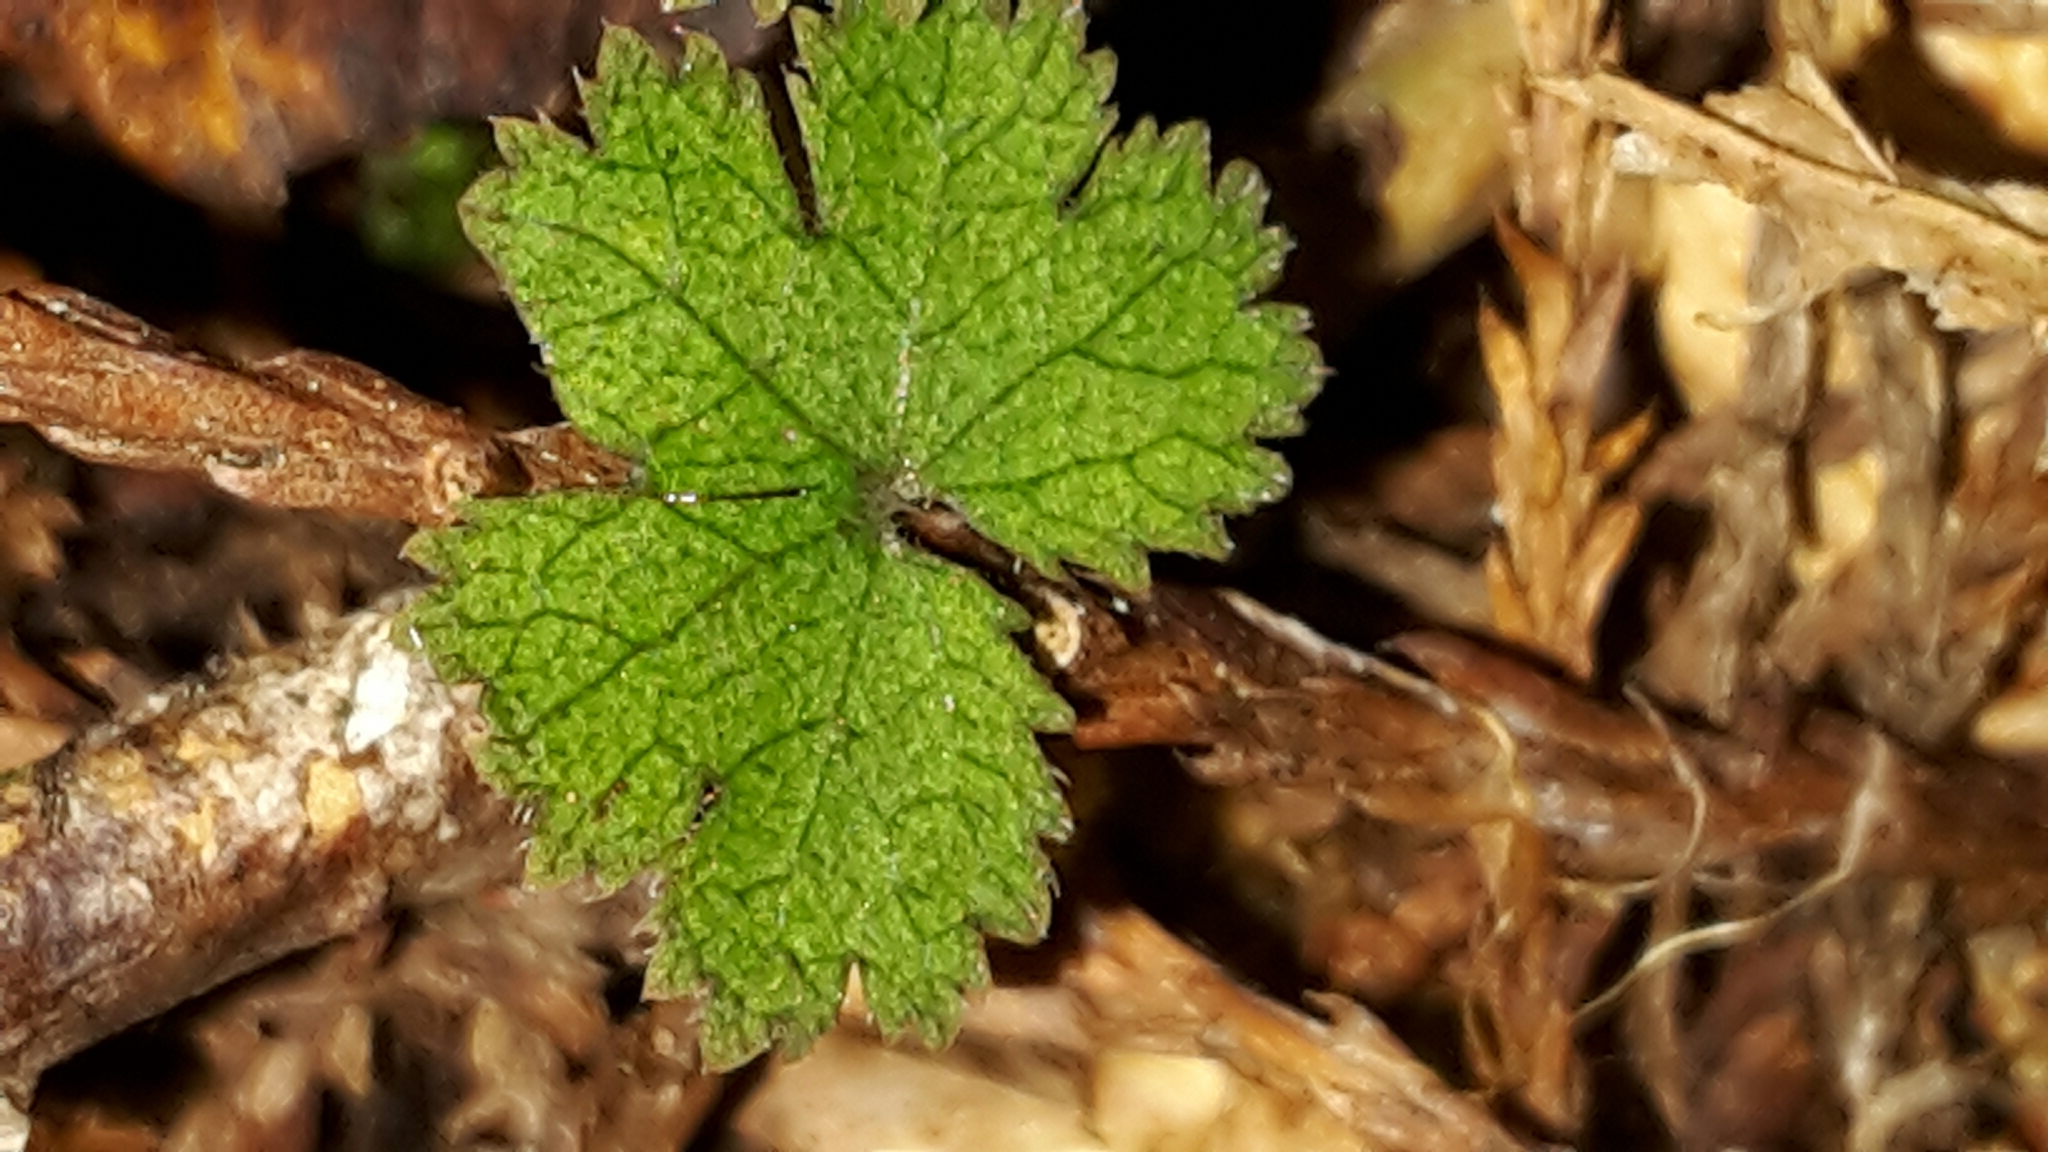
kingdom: Plantae
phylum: Tracheophyta
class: Magnoliopsida
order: Apiales
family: Araliaceae
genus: Hydrocotyle
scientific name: Hydrocotyle elongata
